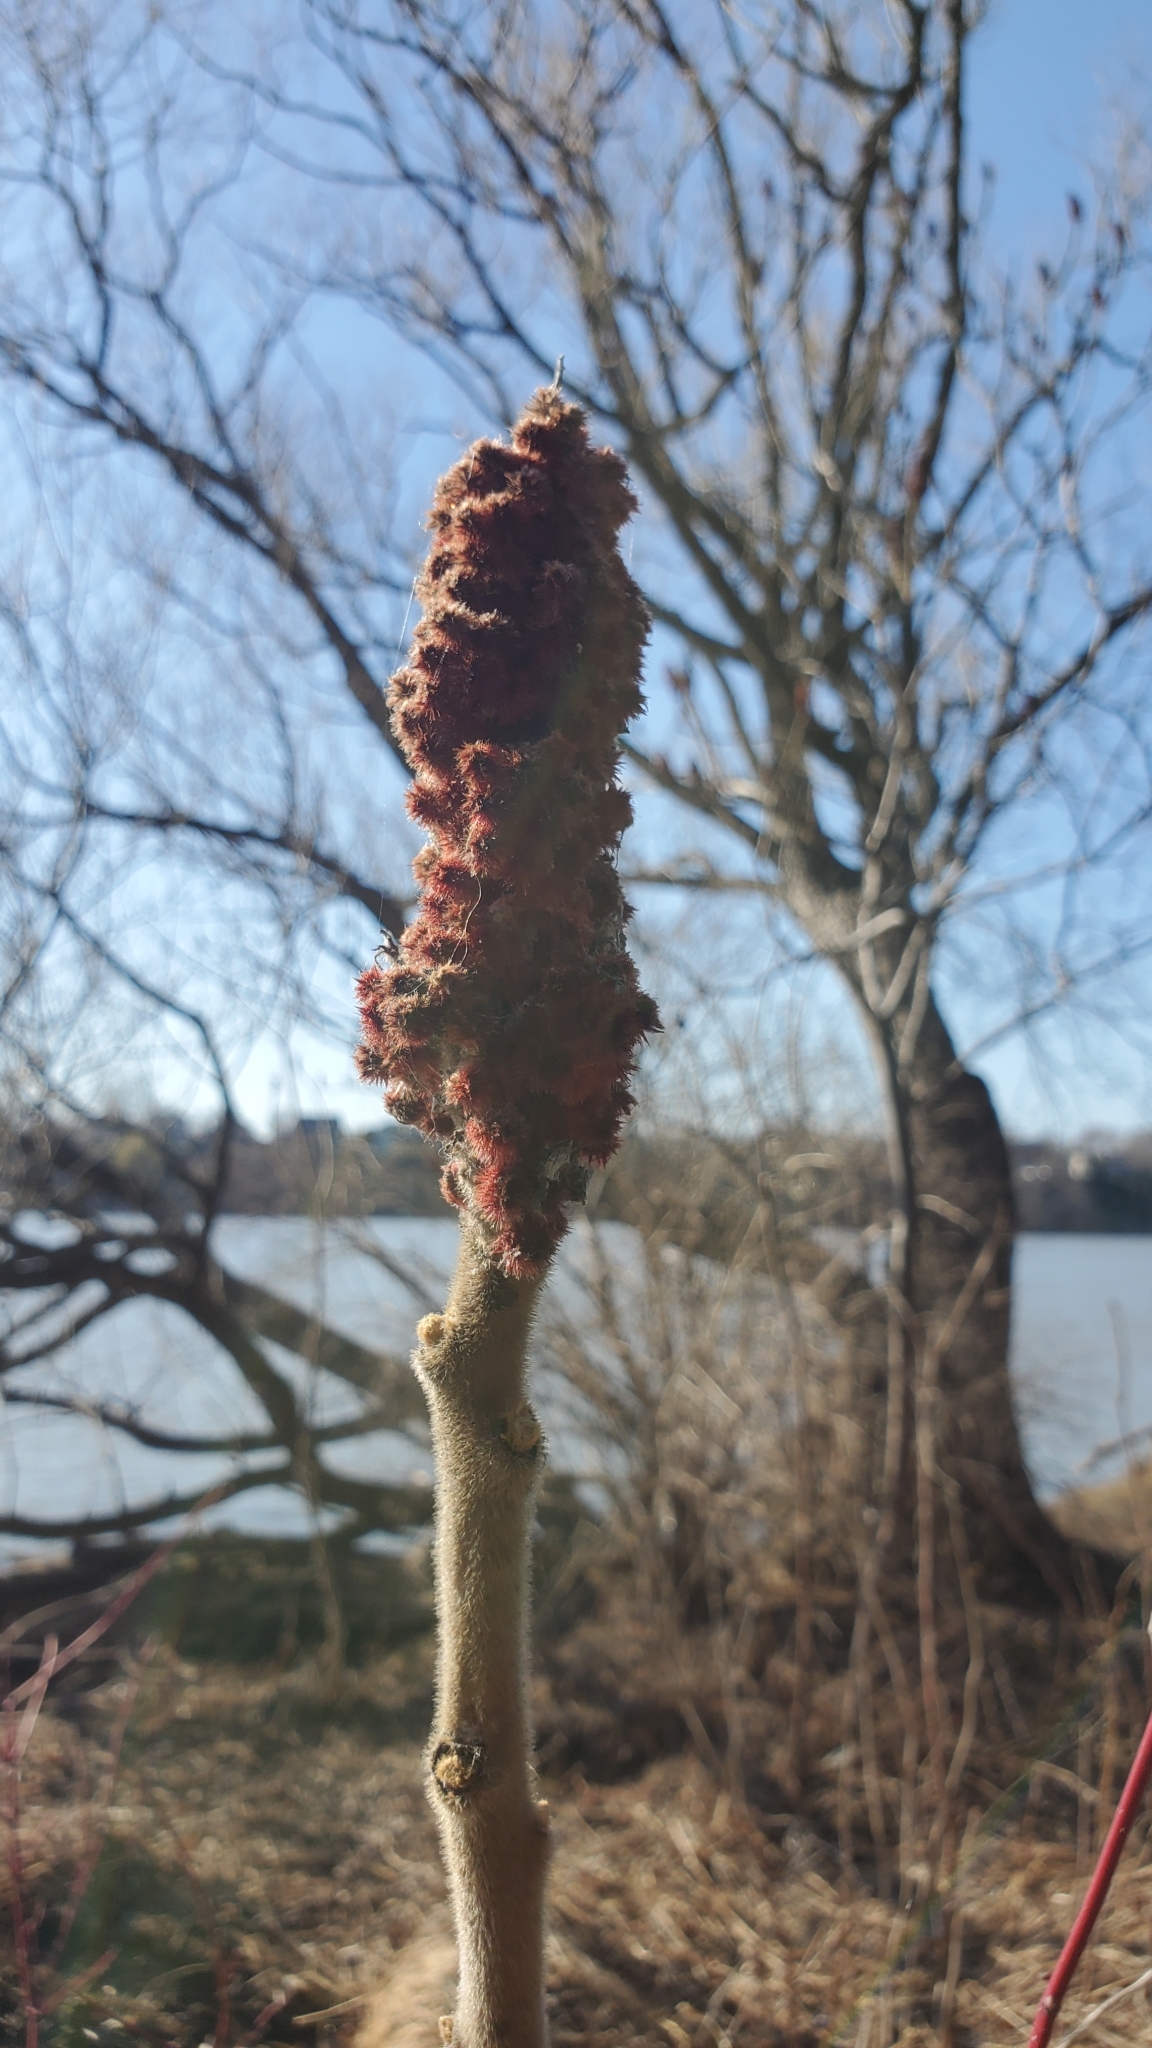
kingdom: Plantae
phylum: Tracheophyta
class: Magnoliopsida
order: Sapindales
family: Anacardiaceae
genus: Rhus
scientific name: Rhus typhina
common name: Staghorn sumac
